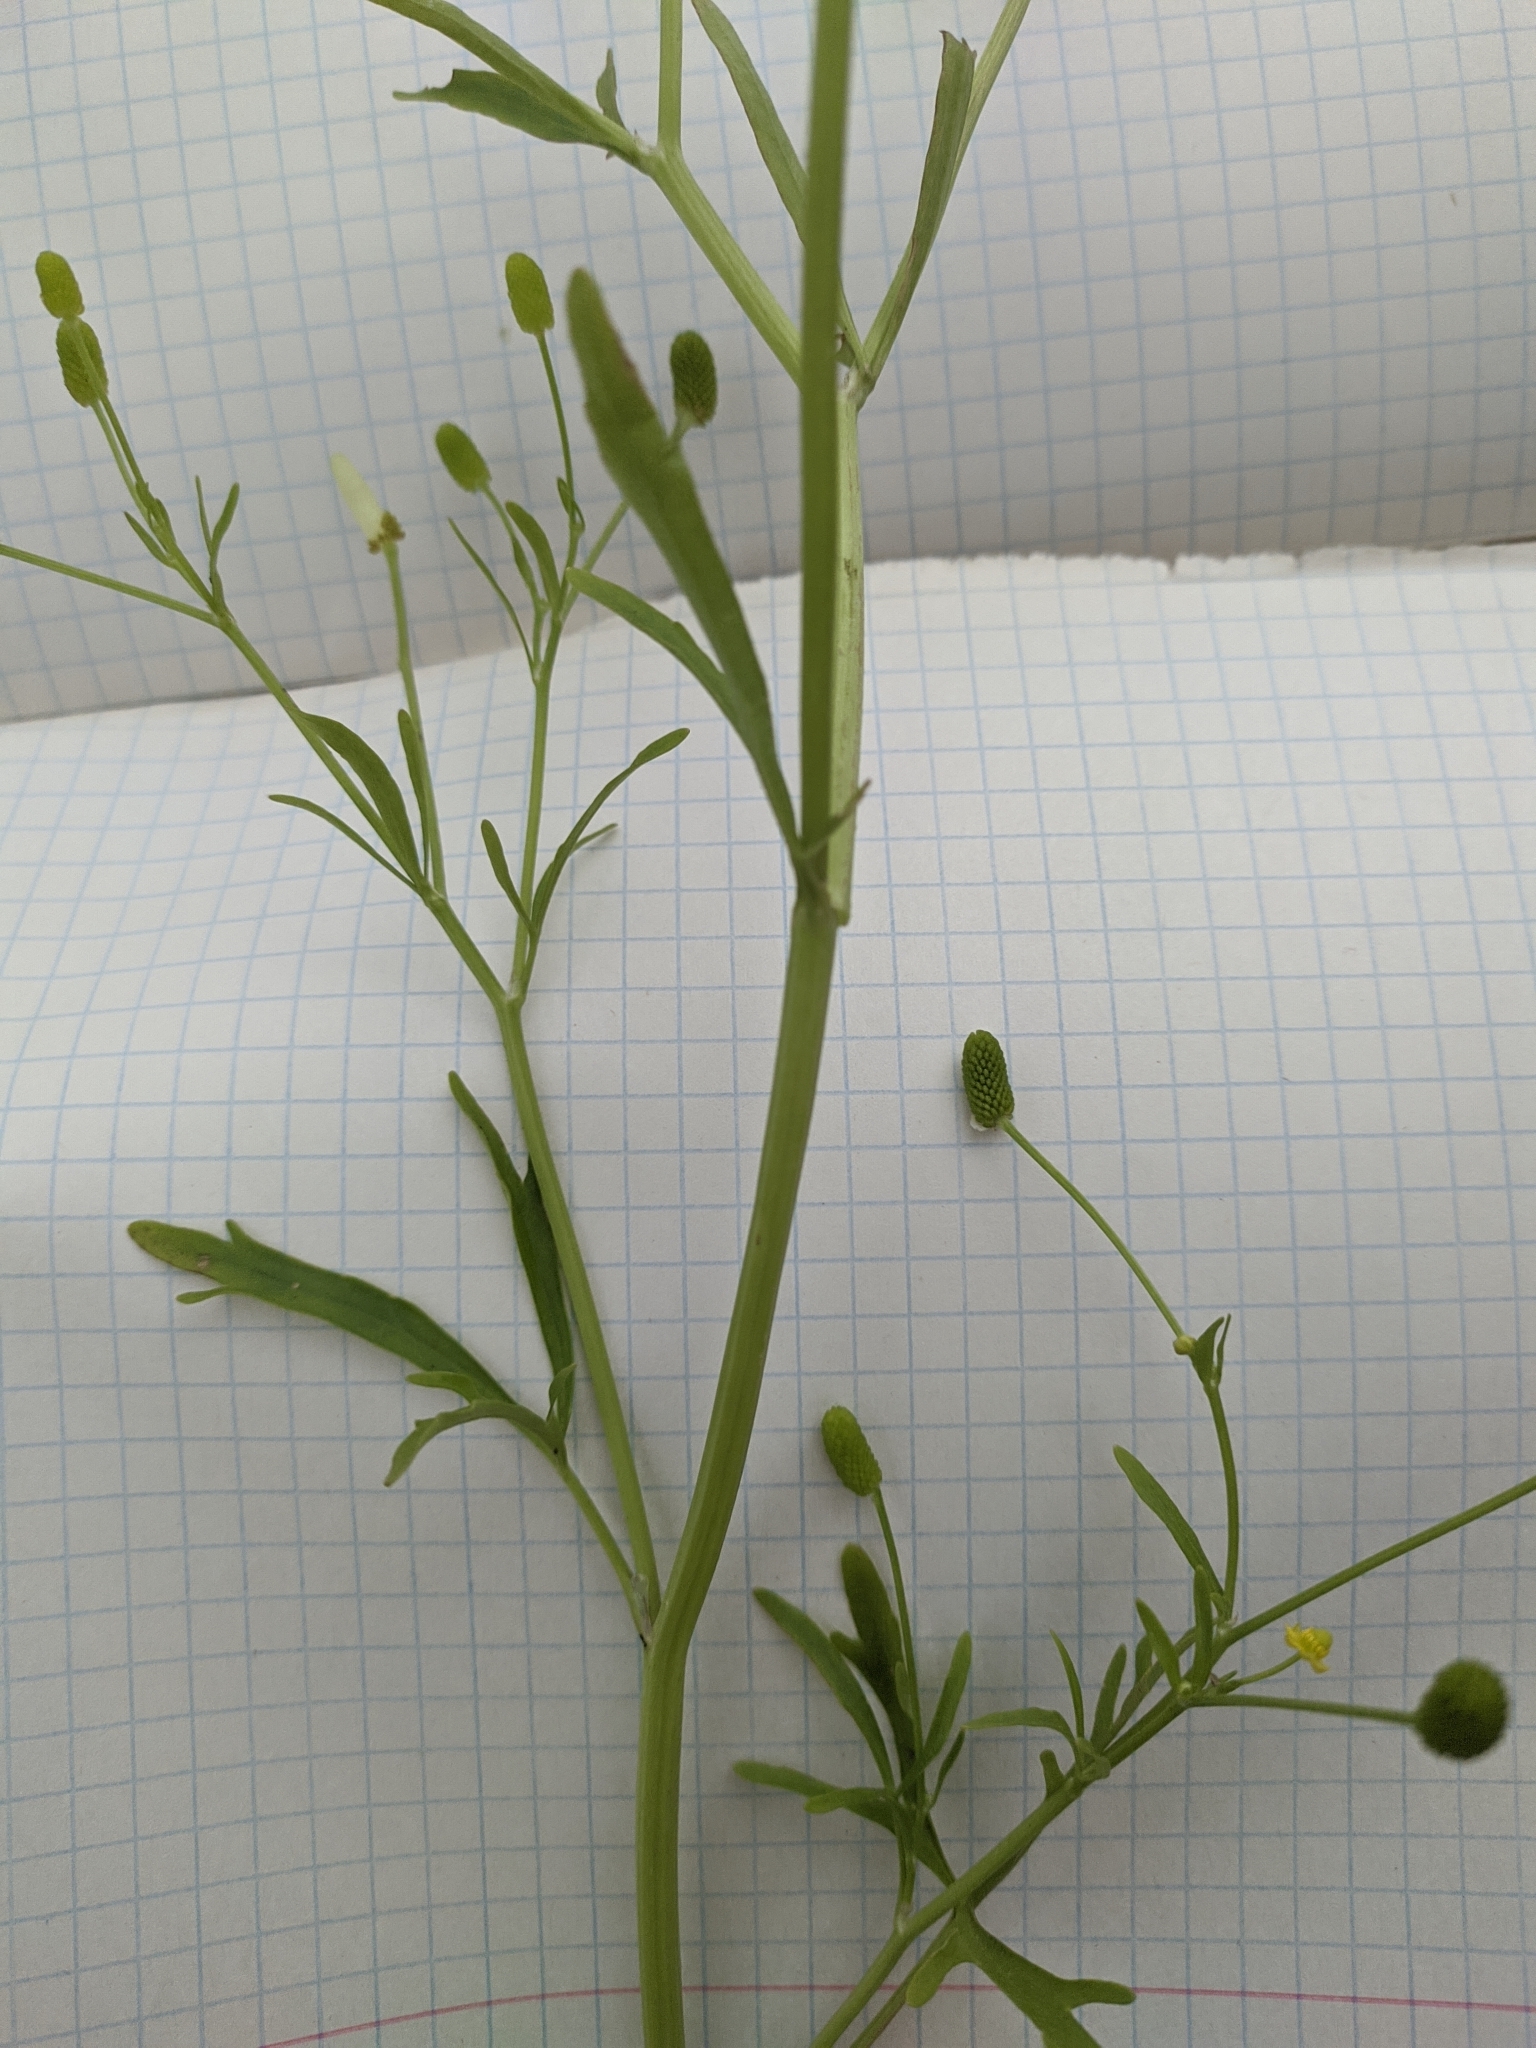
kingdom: Plantae
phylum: Tracheophyta
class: Magnoliopsida
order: Ranunculales
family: Ranunculaceae
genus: Ranunculus
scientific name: Ranunculus sceleratus
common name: Celery-leaved buttercup
